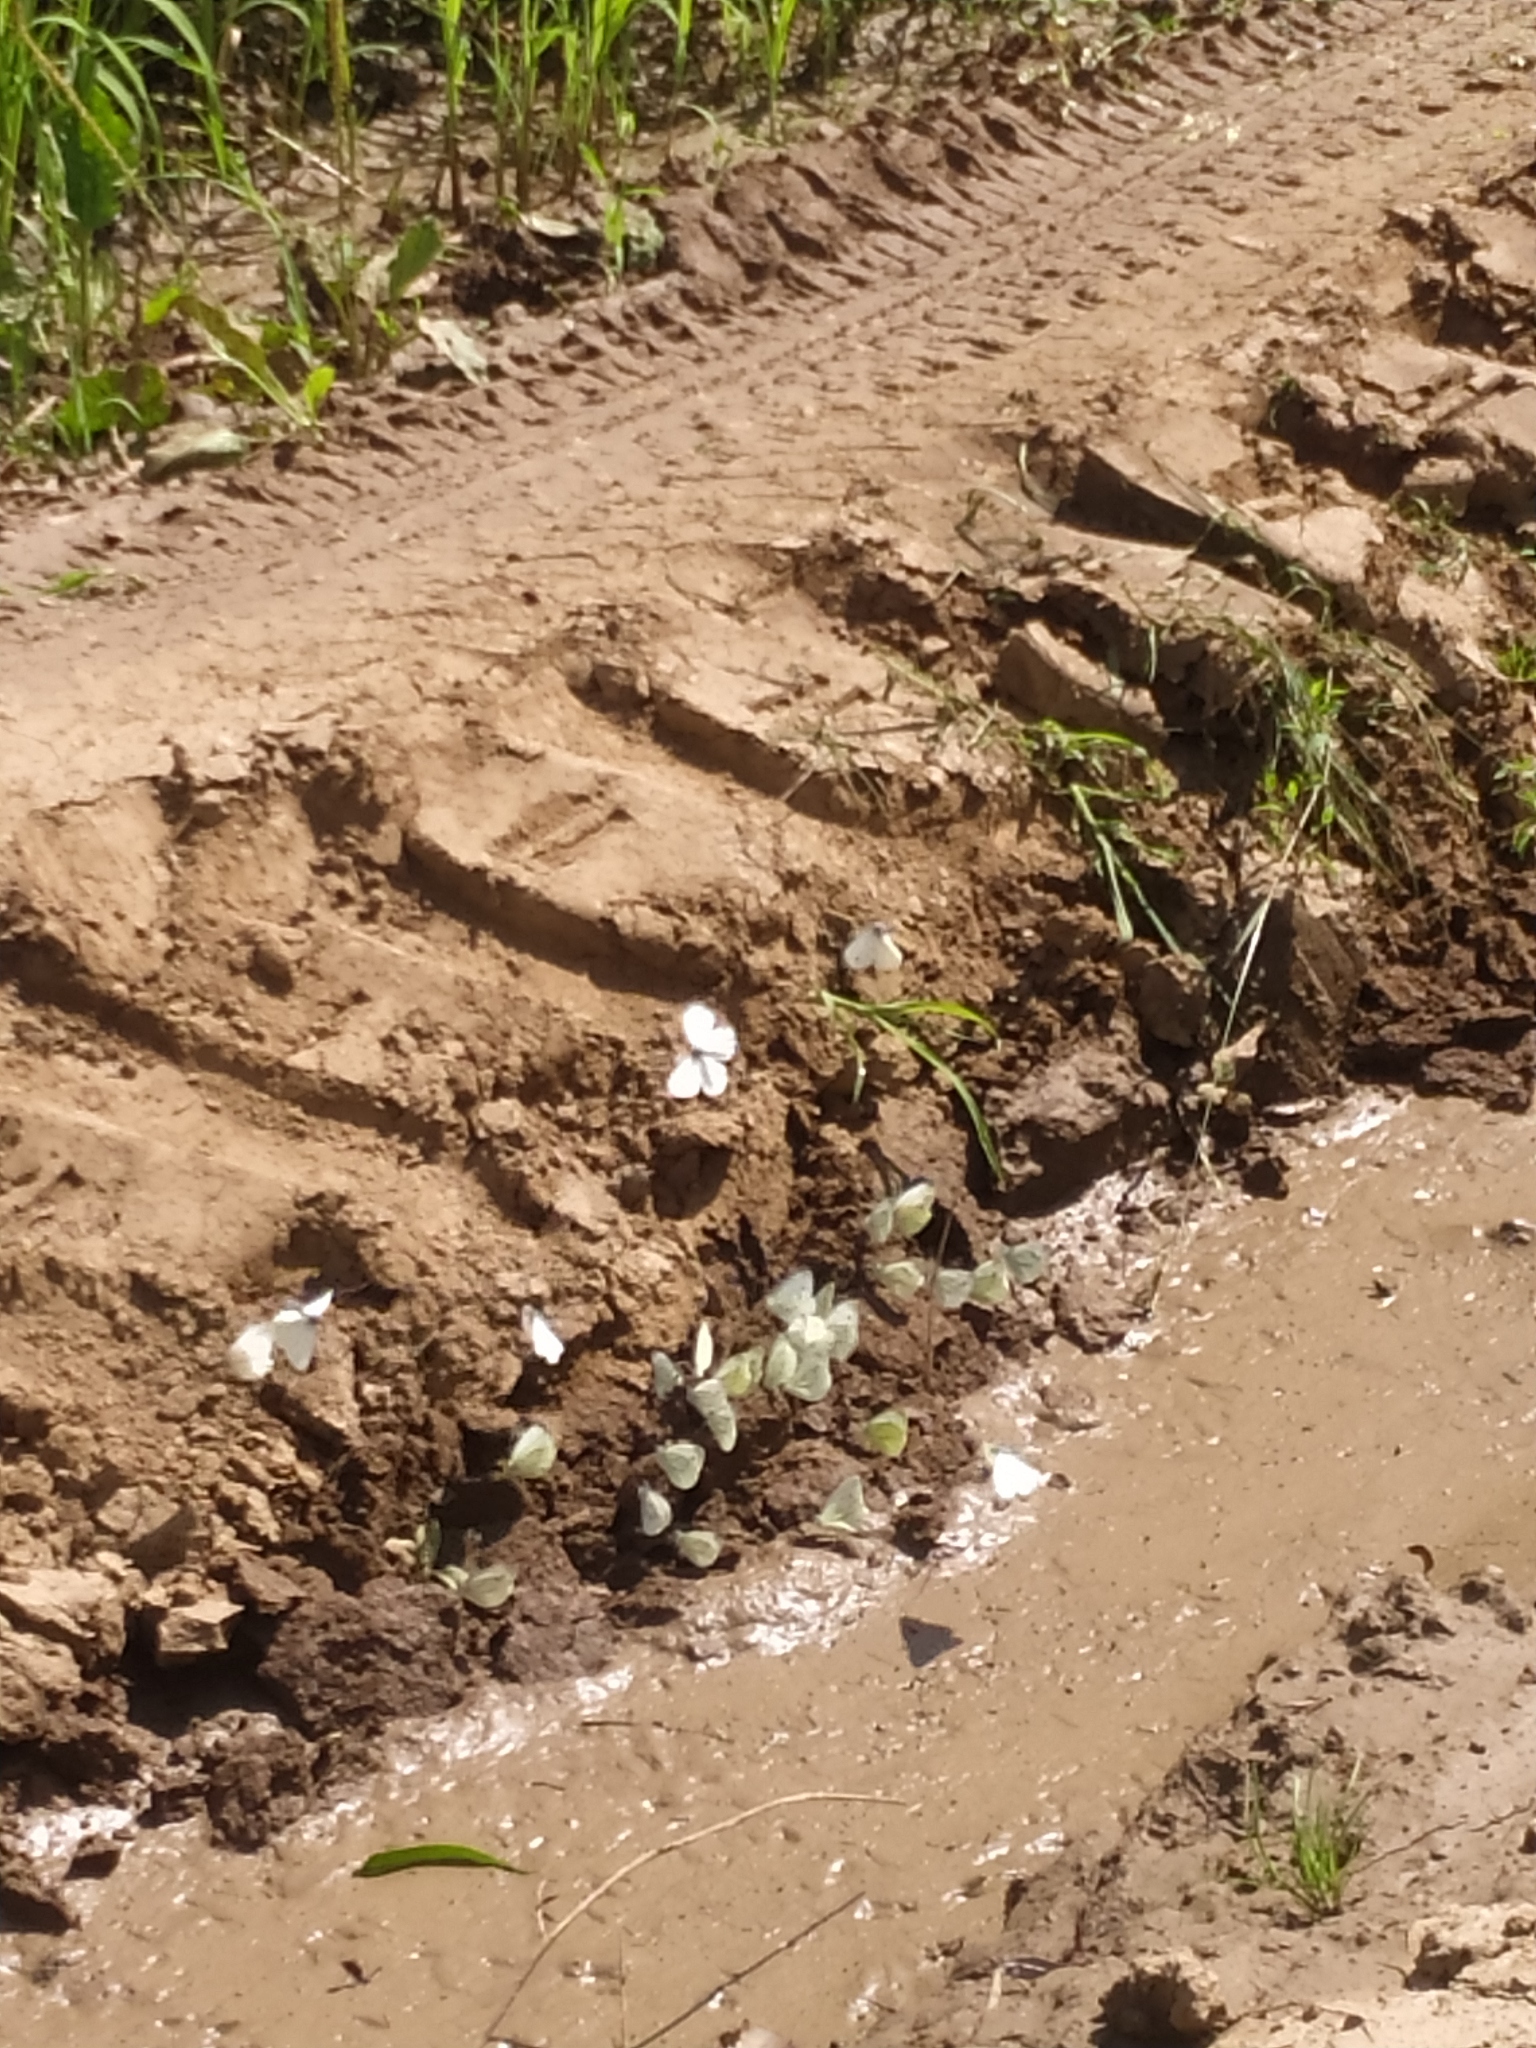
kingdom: Animalia
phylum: Arthropoda
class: Insecta
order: Lepidoptera
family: Pieridae
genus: Pieris
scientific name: Pieris napi
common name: Green-veined white
